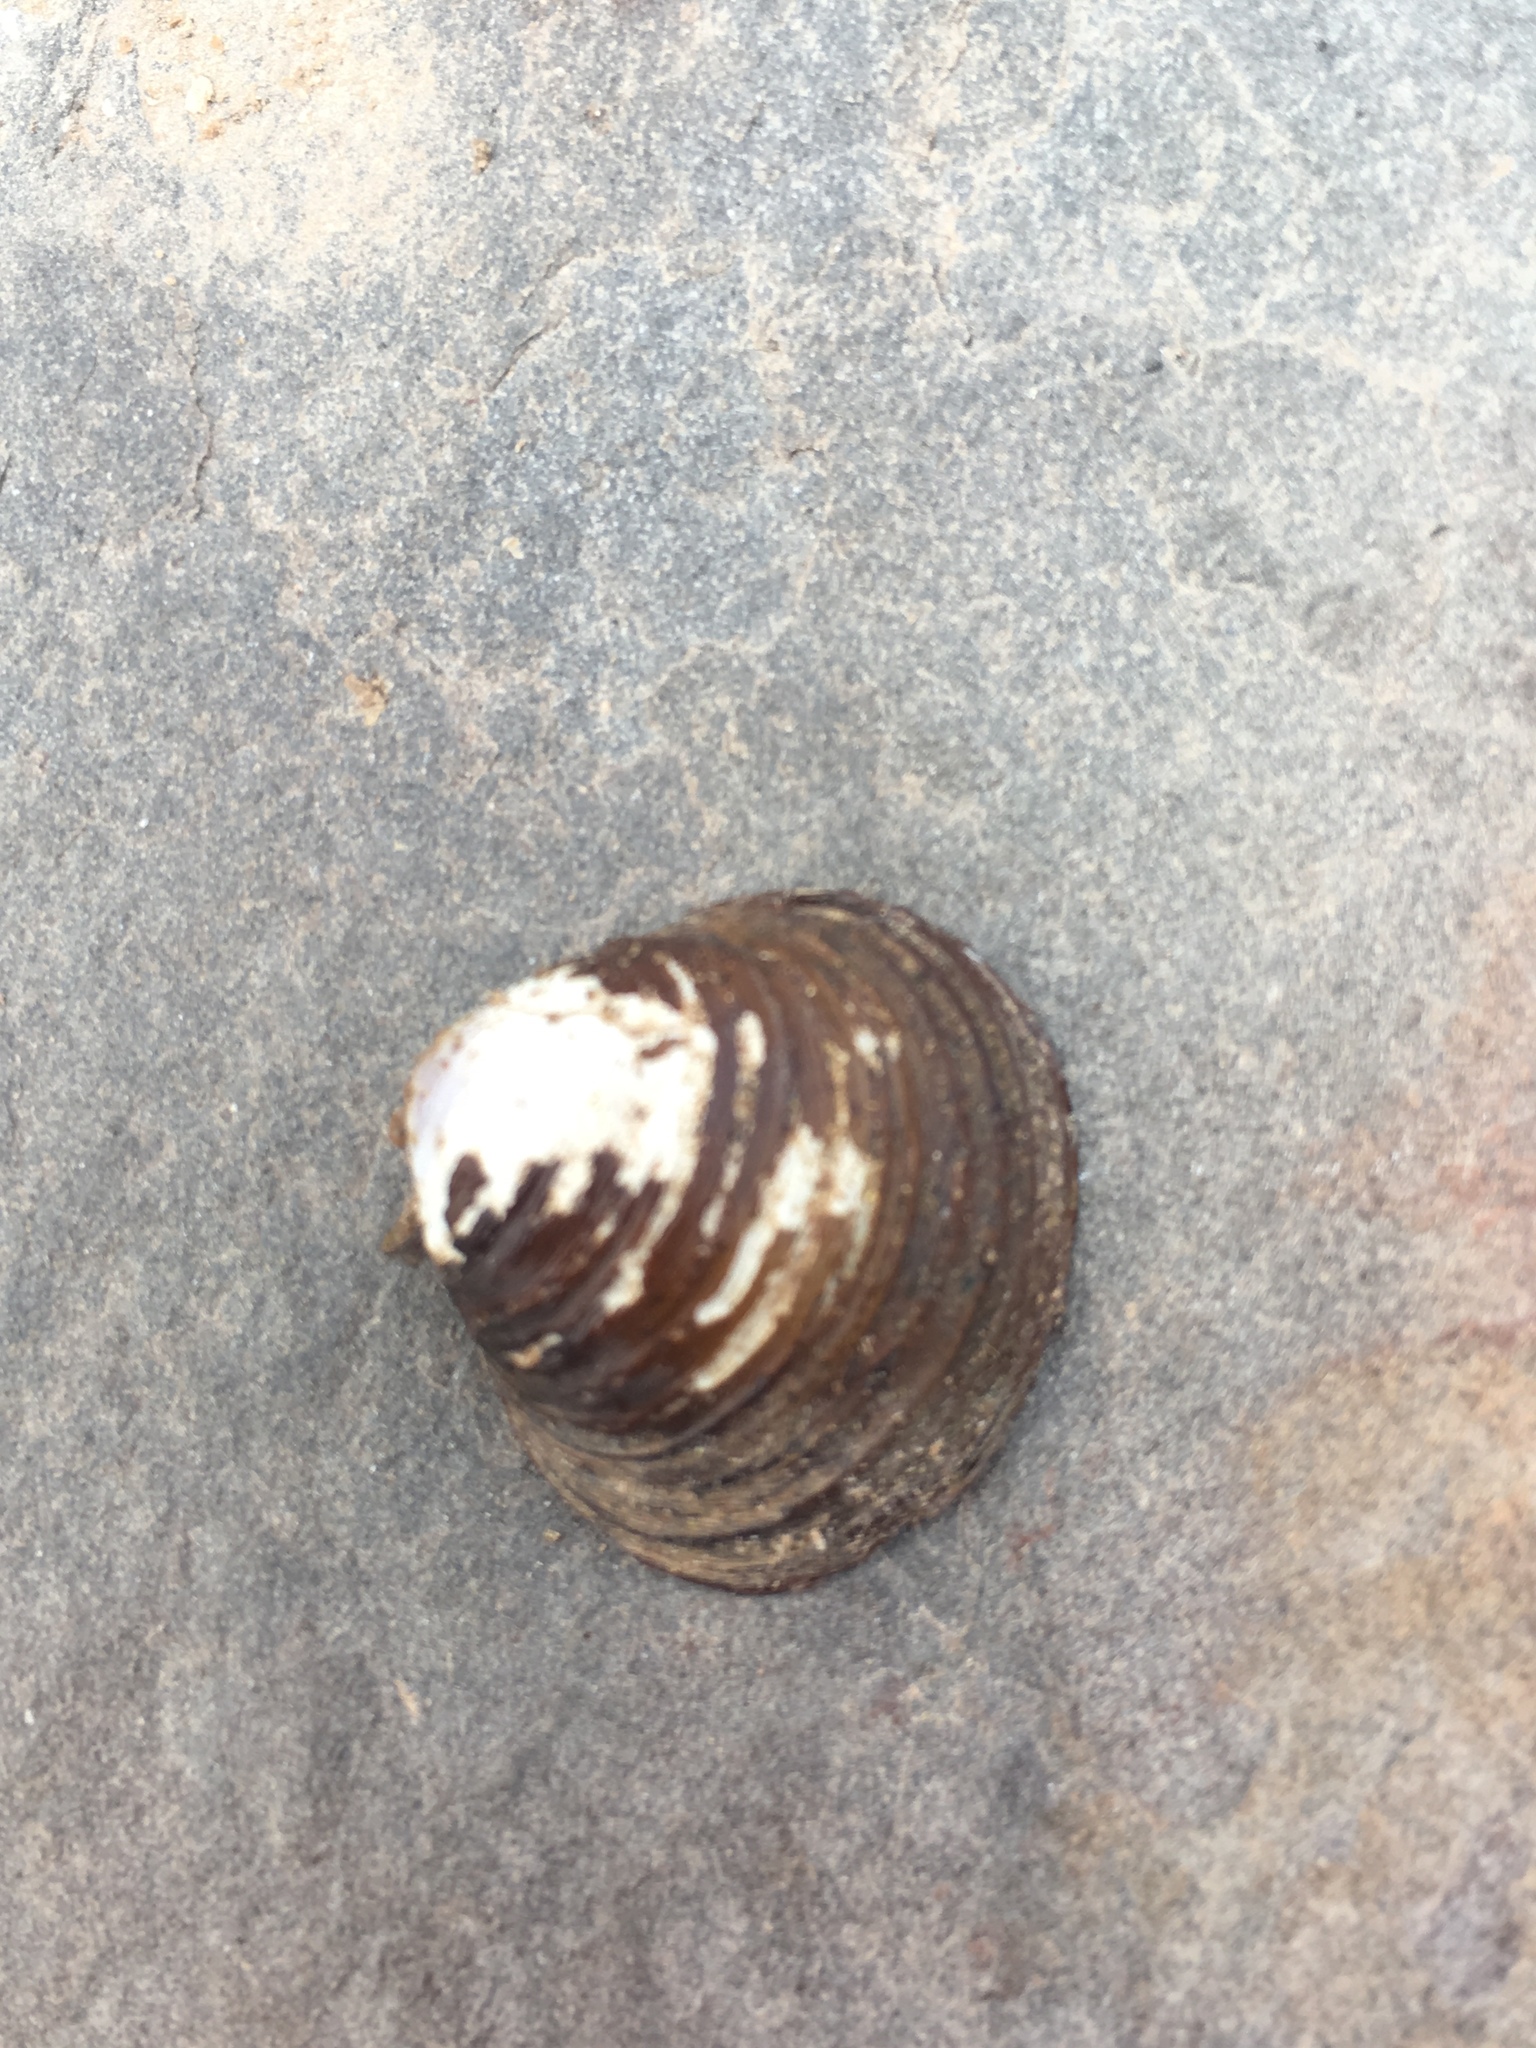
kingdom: Animalia
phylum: Mollusca
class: Bivalvia
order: Venerida
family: Cyrenidae
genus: Corbicula
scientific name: Corbicula fluminea
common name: Asian clam
